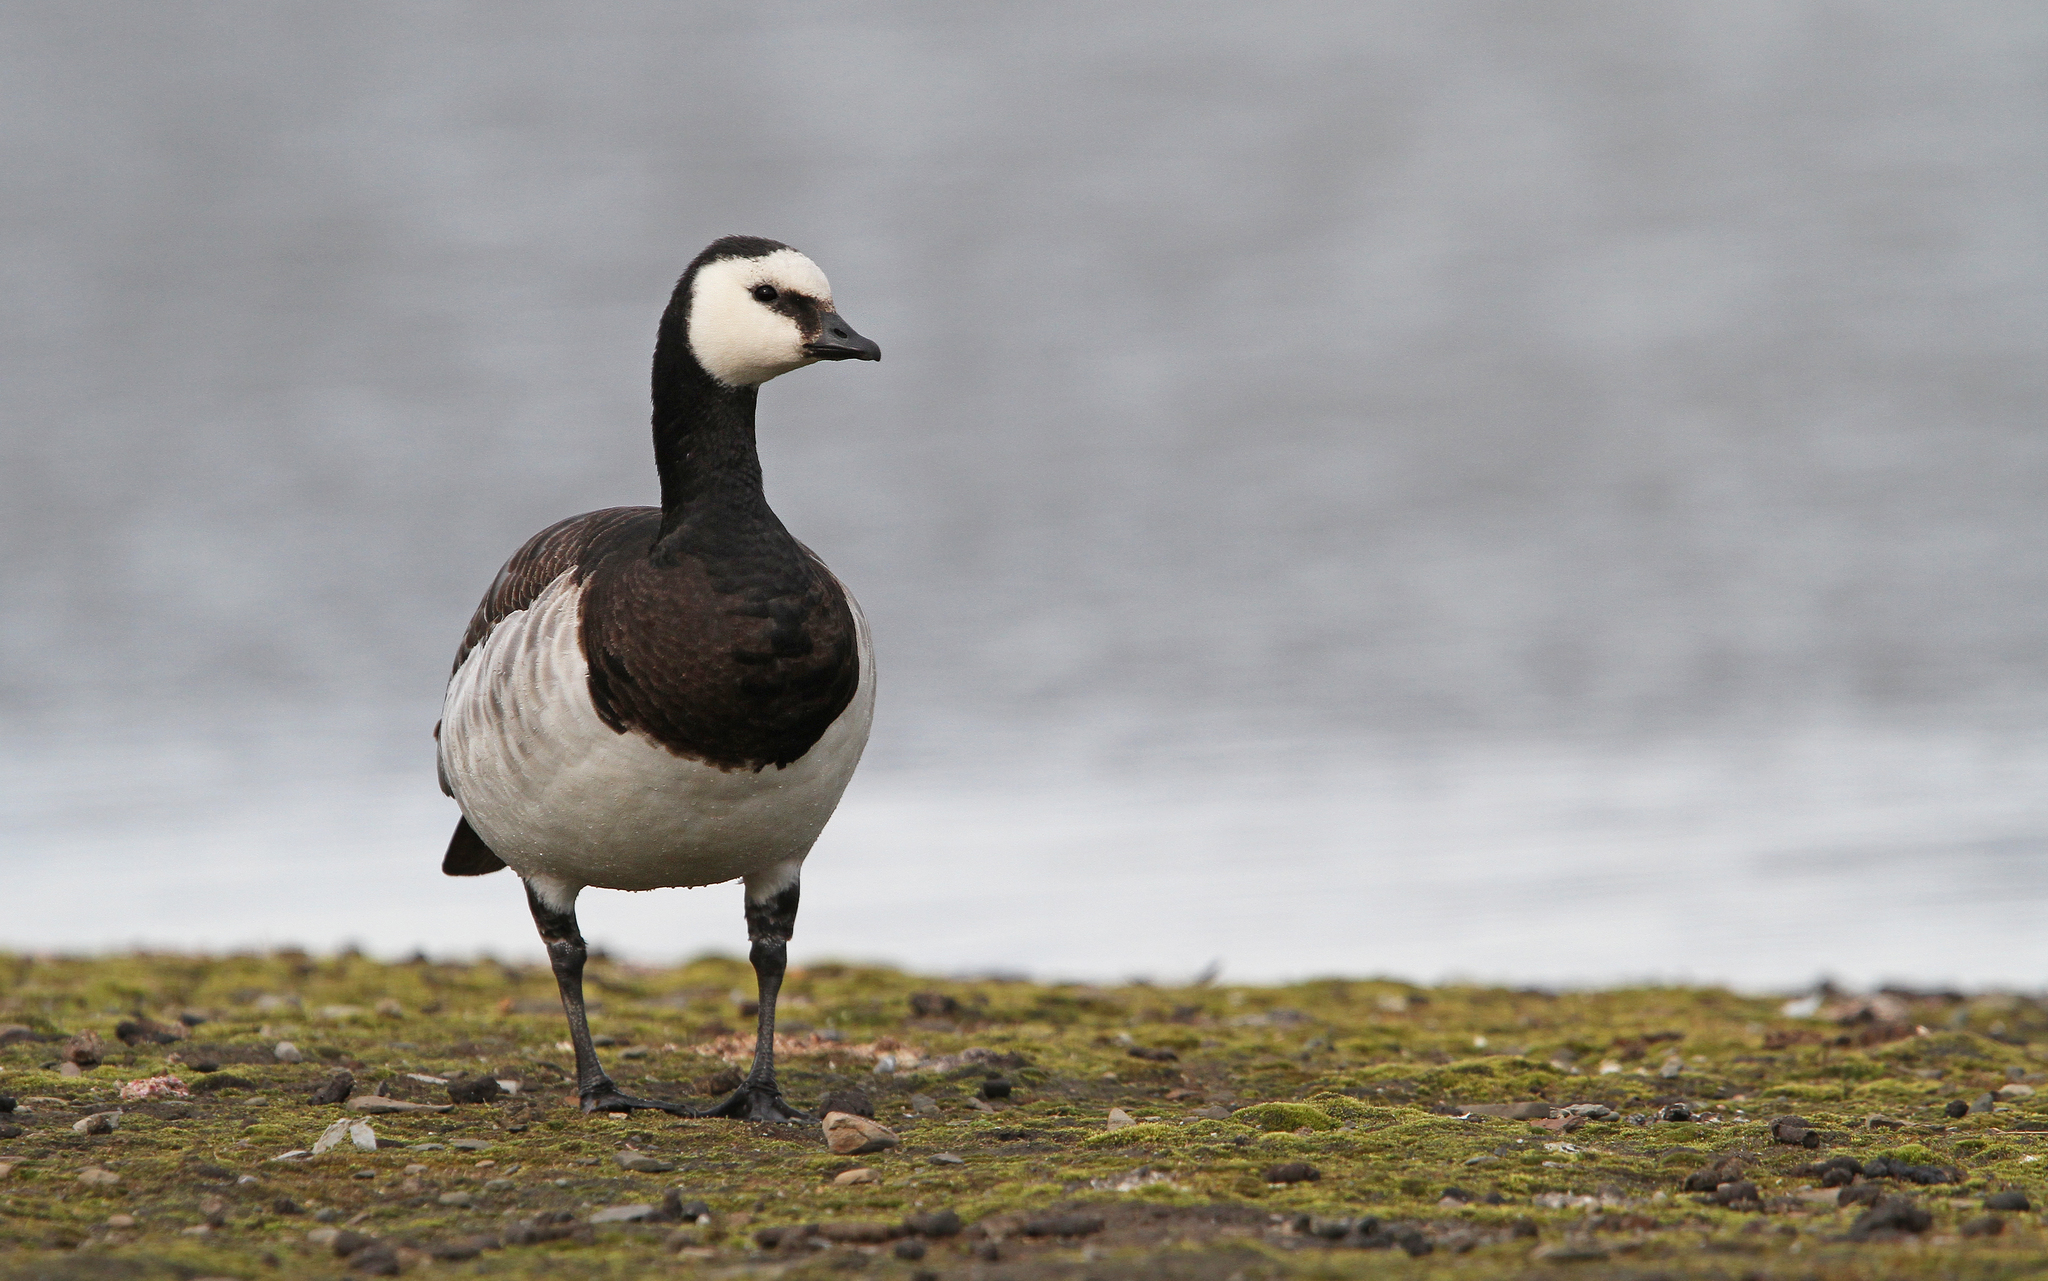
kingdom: Animalia
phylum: Chordata
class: Aves
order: Anseriformes
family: Anatidae
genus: Branta
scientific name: Branta leucopsis
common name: Barnacle goose
